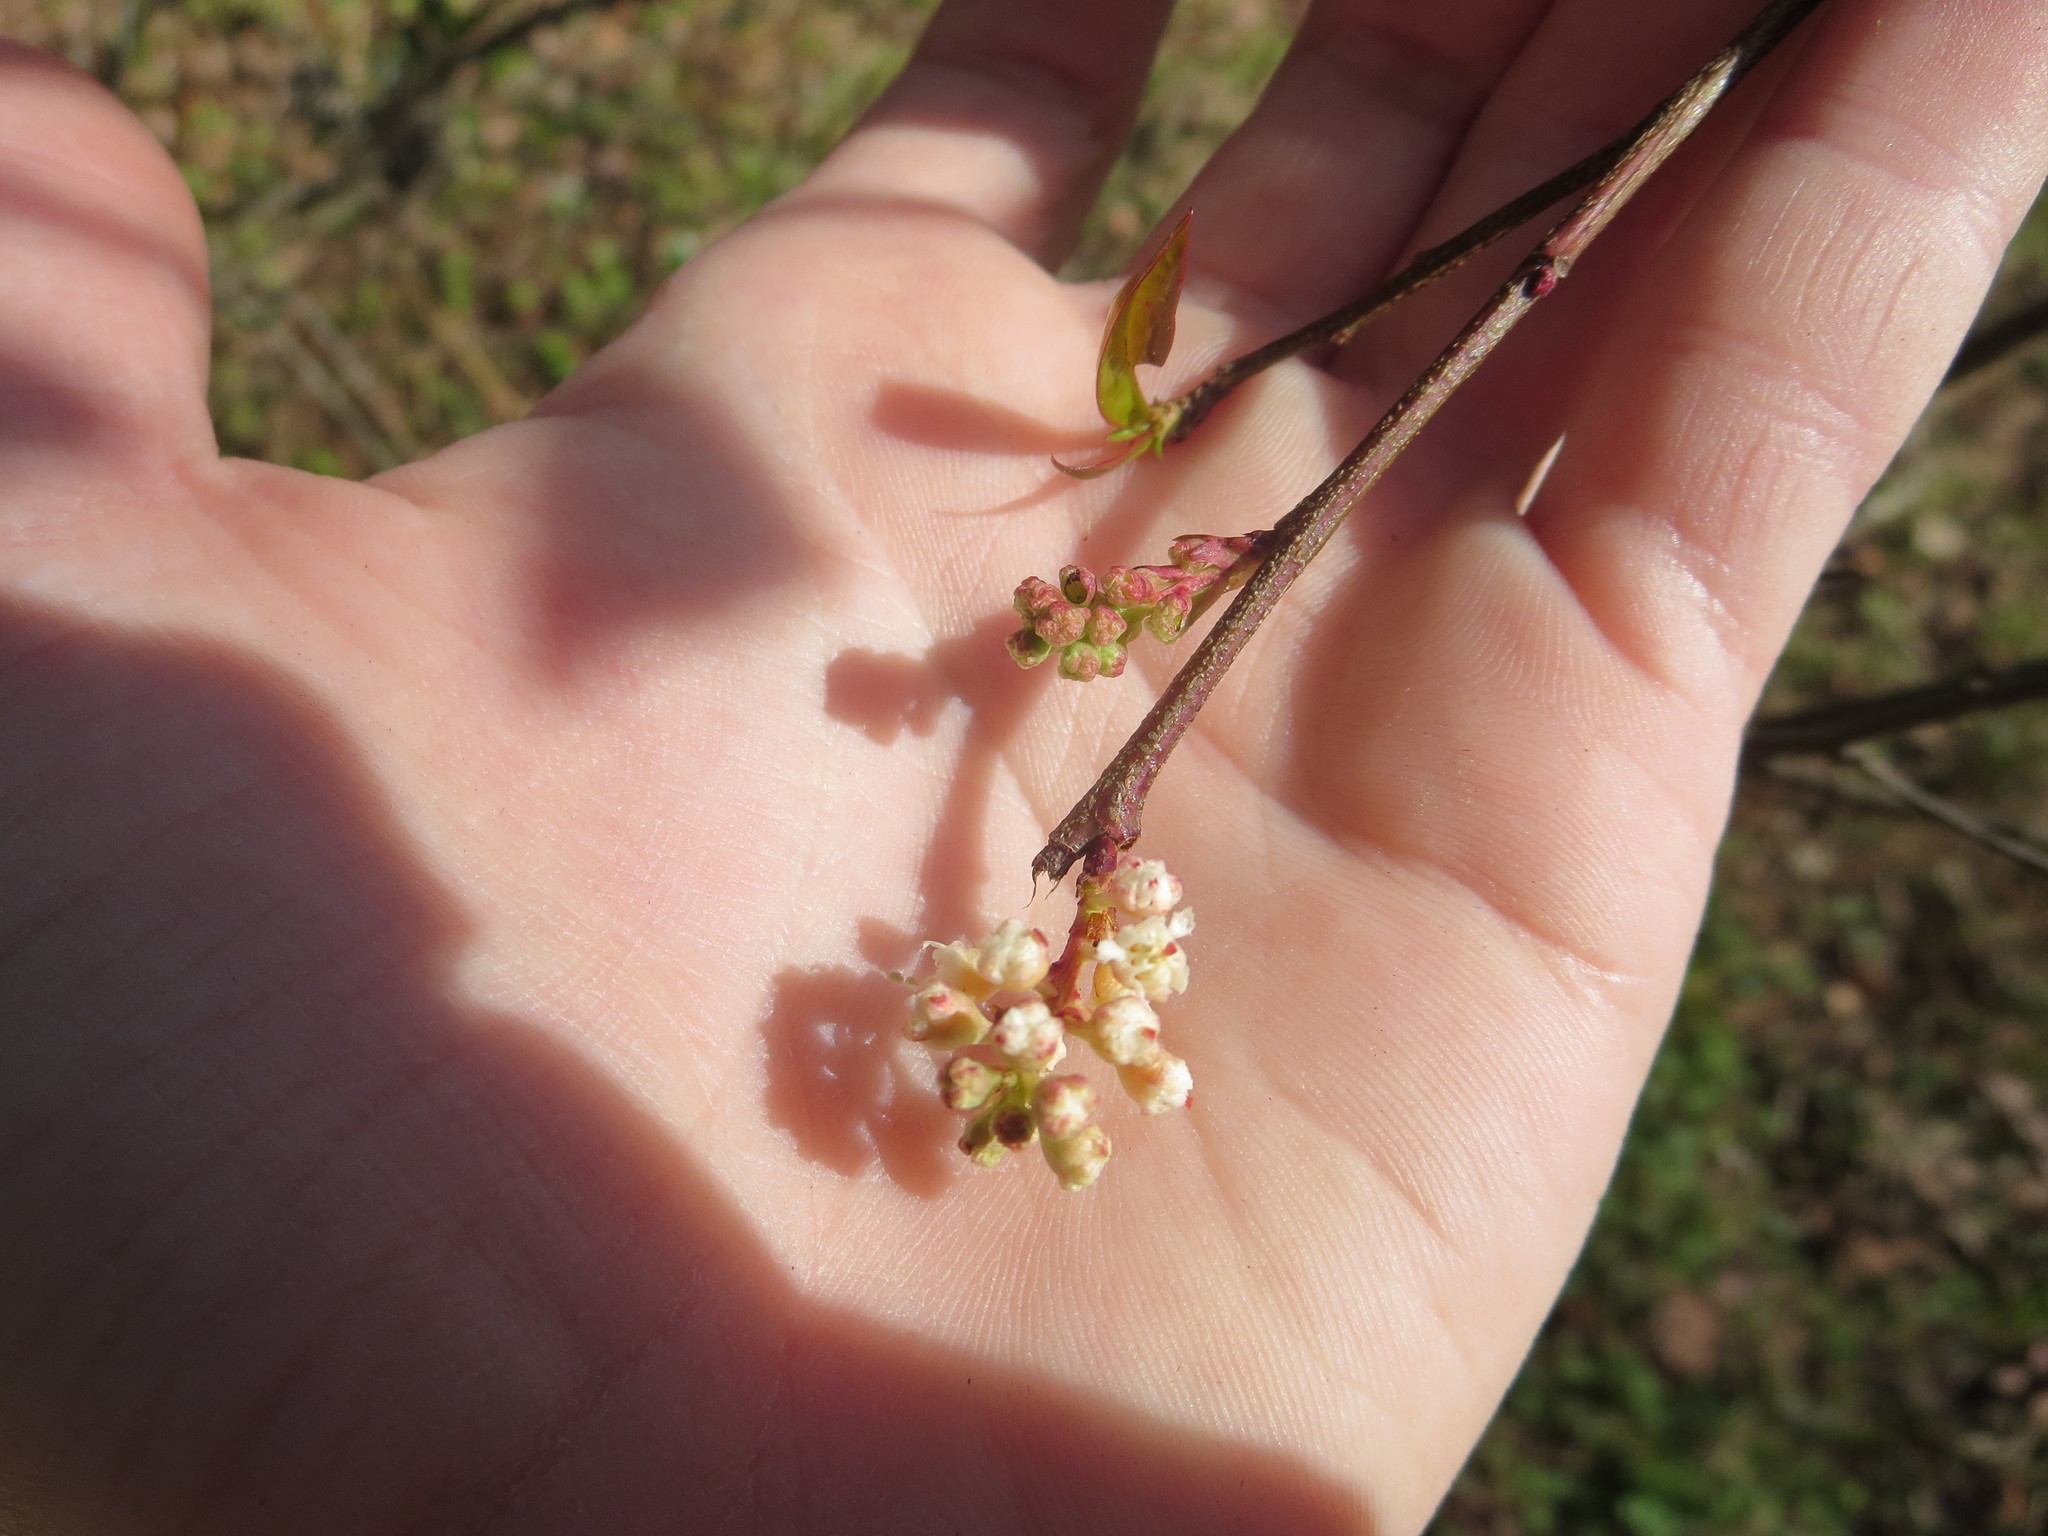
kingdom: Plantae
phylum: Tracheophyta
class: Magnoliopsida
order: Rosales
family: Rosaceae
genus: Prunus
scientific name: Prunus caroliniana
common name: Carolina laurel cherry
